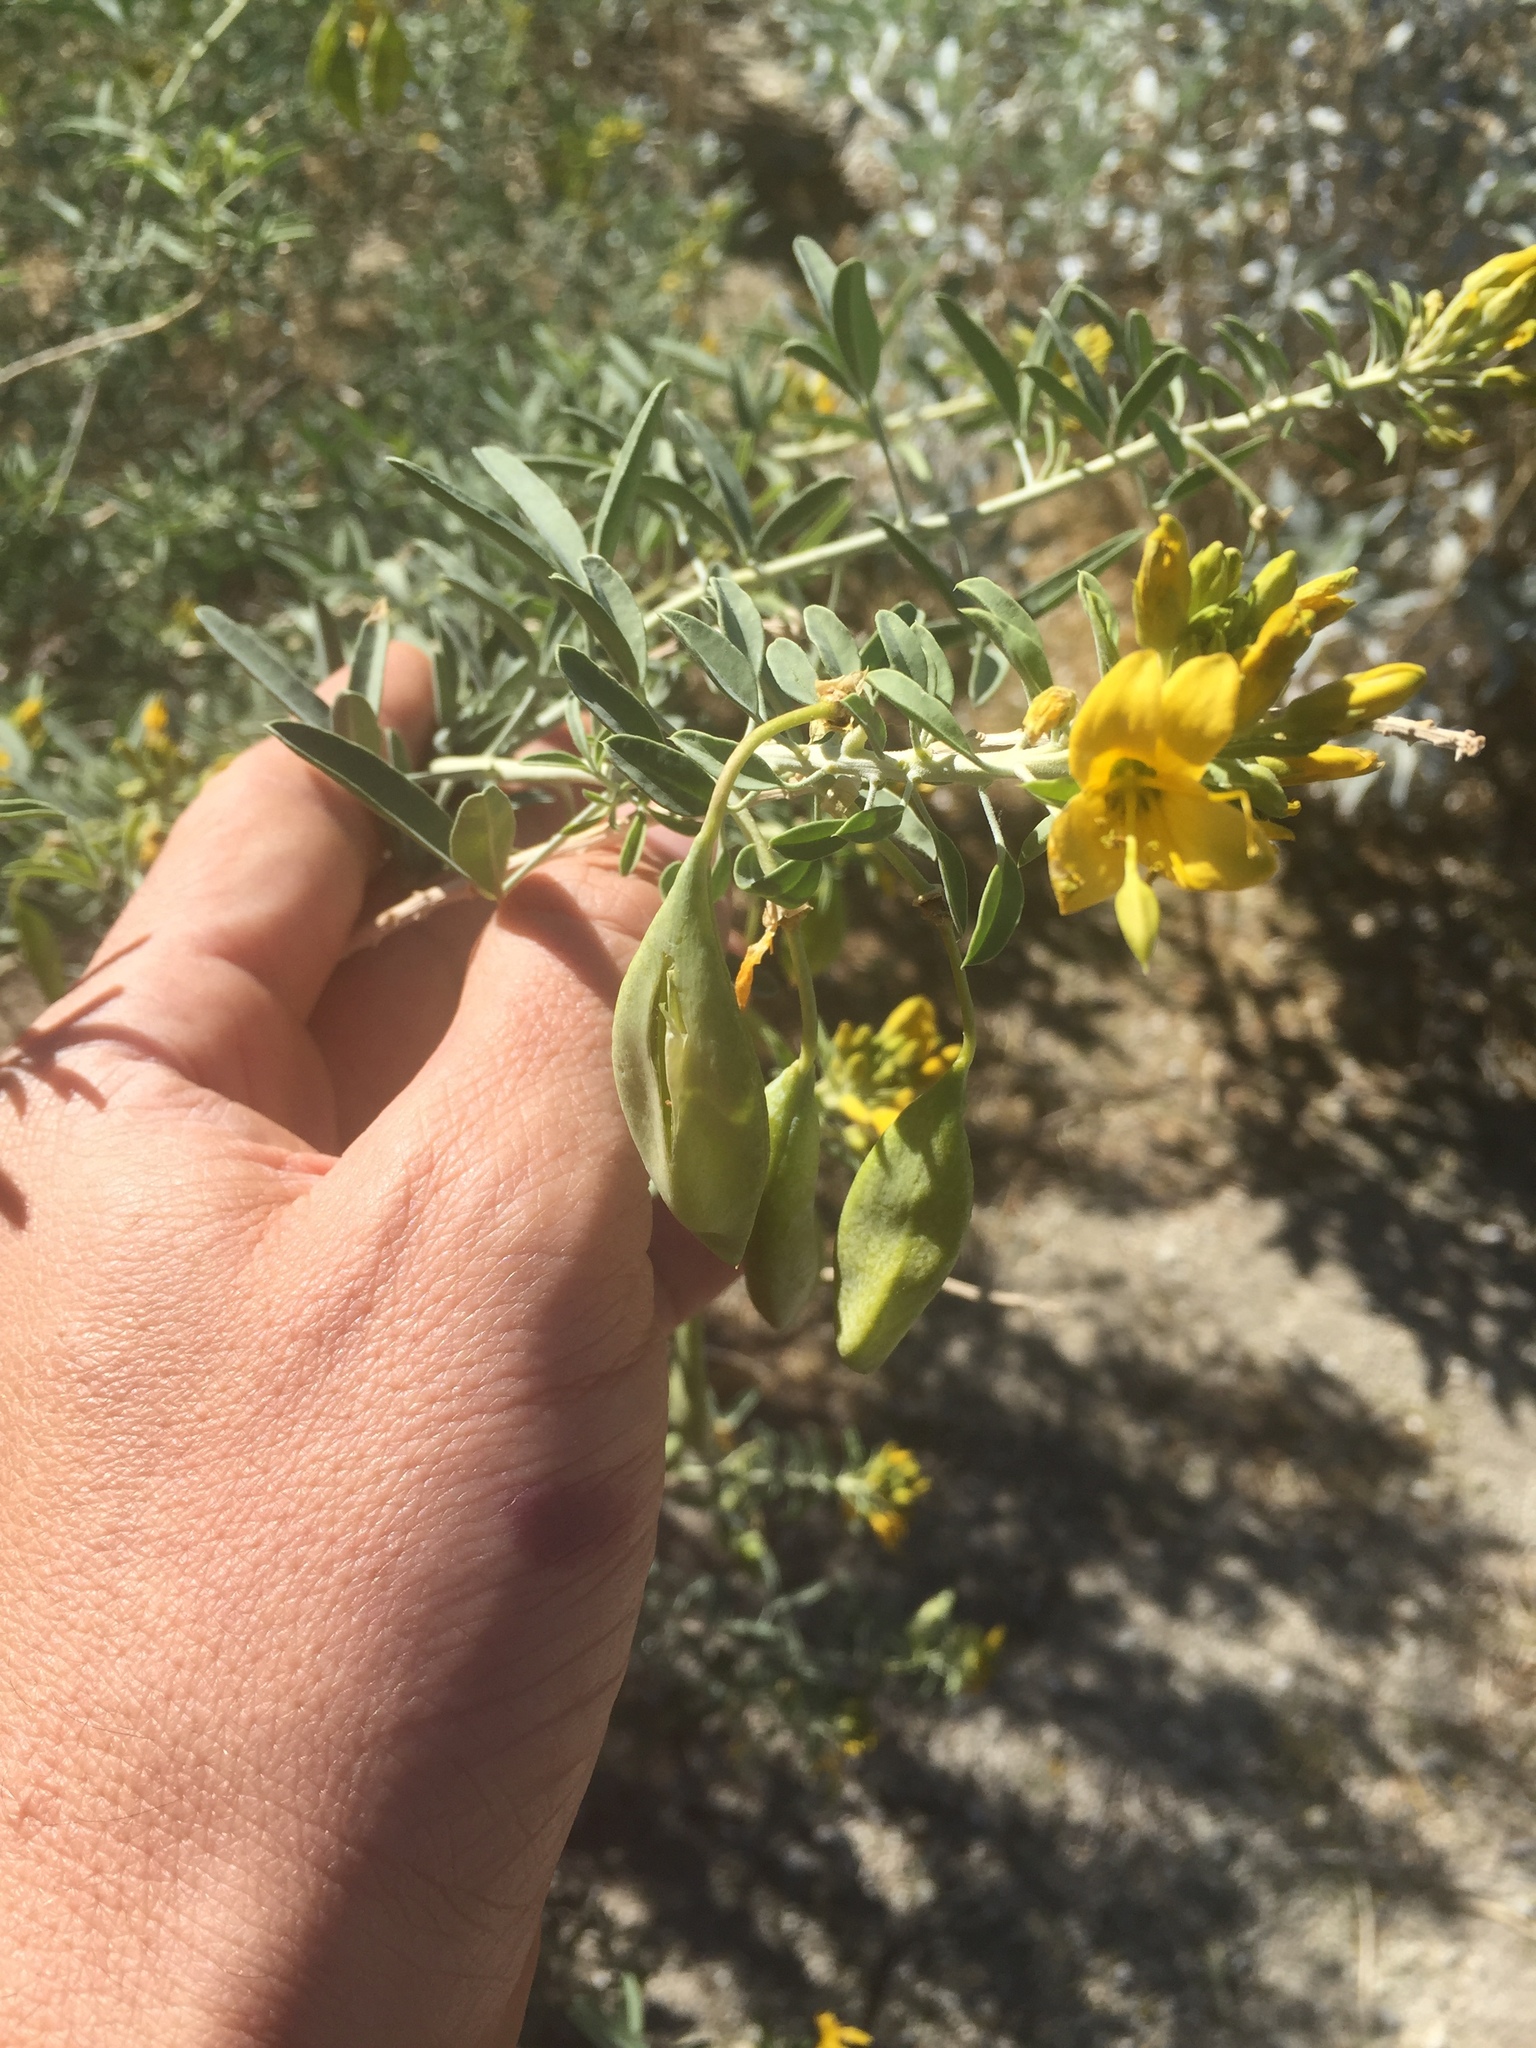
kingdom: Plantae
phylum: Tracheophyta
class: Magnoliopsida
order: Brassicales
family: Cleomaceae
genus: Cleomella
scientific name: Cleomella arborea
